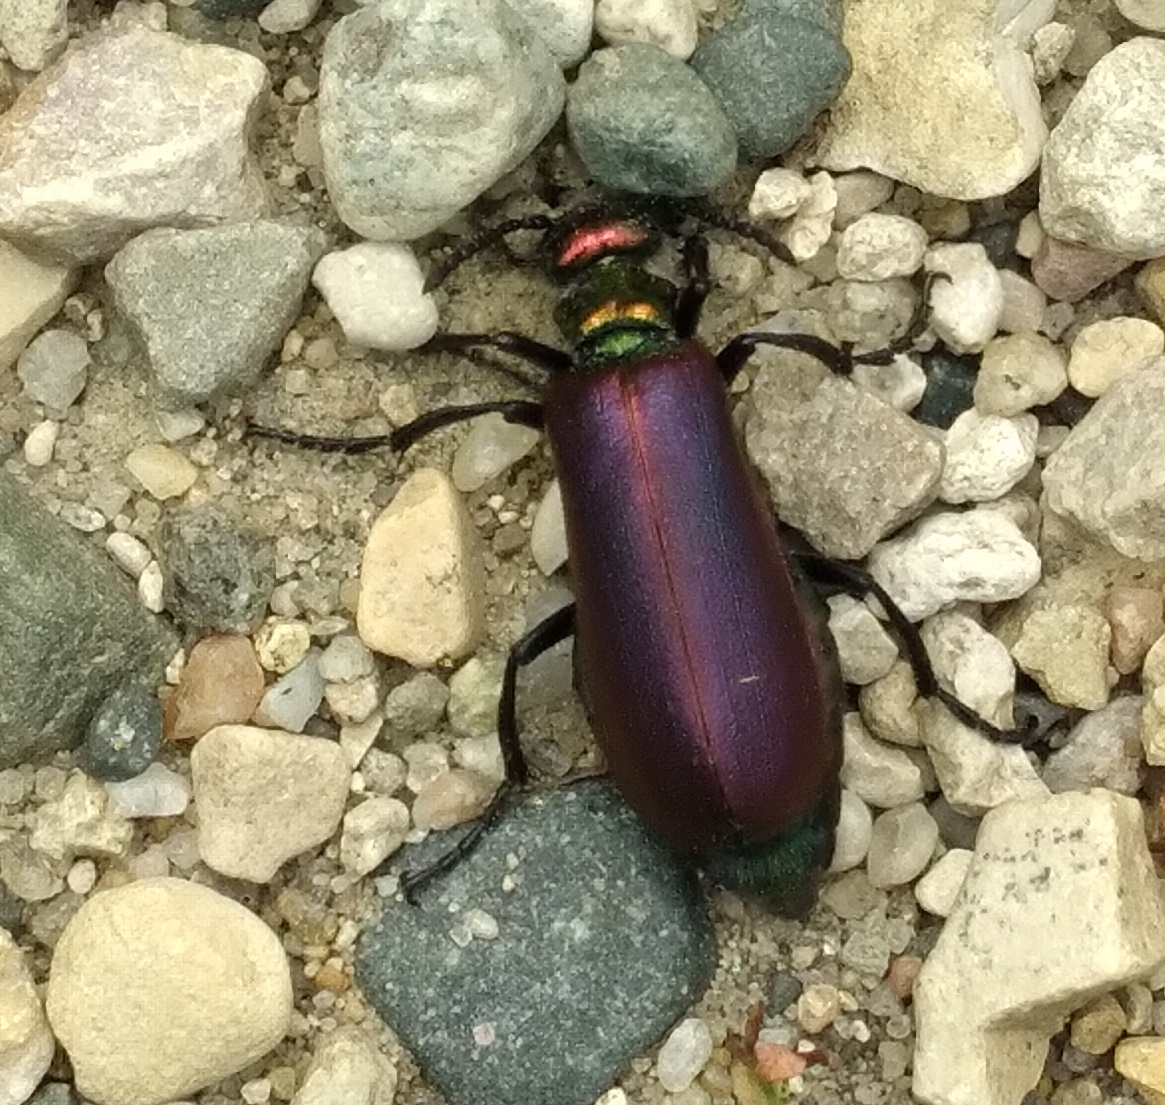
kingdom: Animalia
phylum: Arthropoda
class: Insecta
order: Coleoptera
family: Meloidae
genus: Lytta
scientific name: Lytta nuttallii
